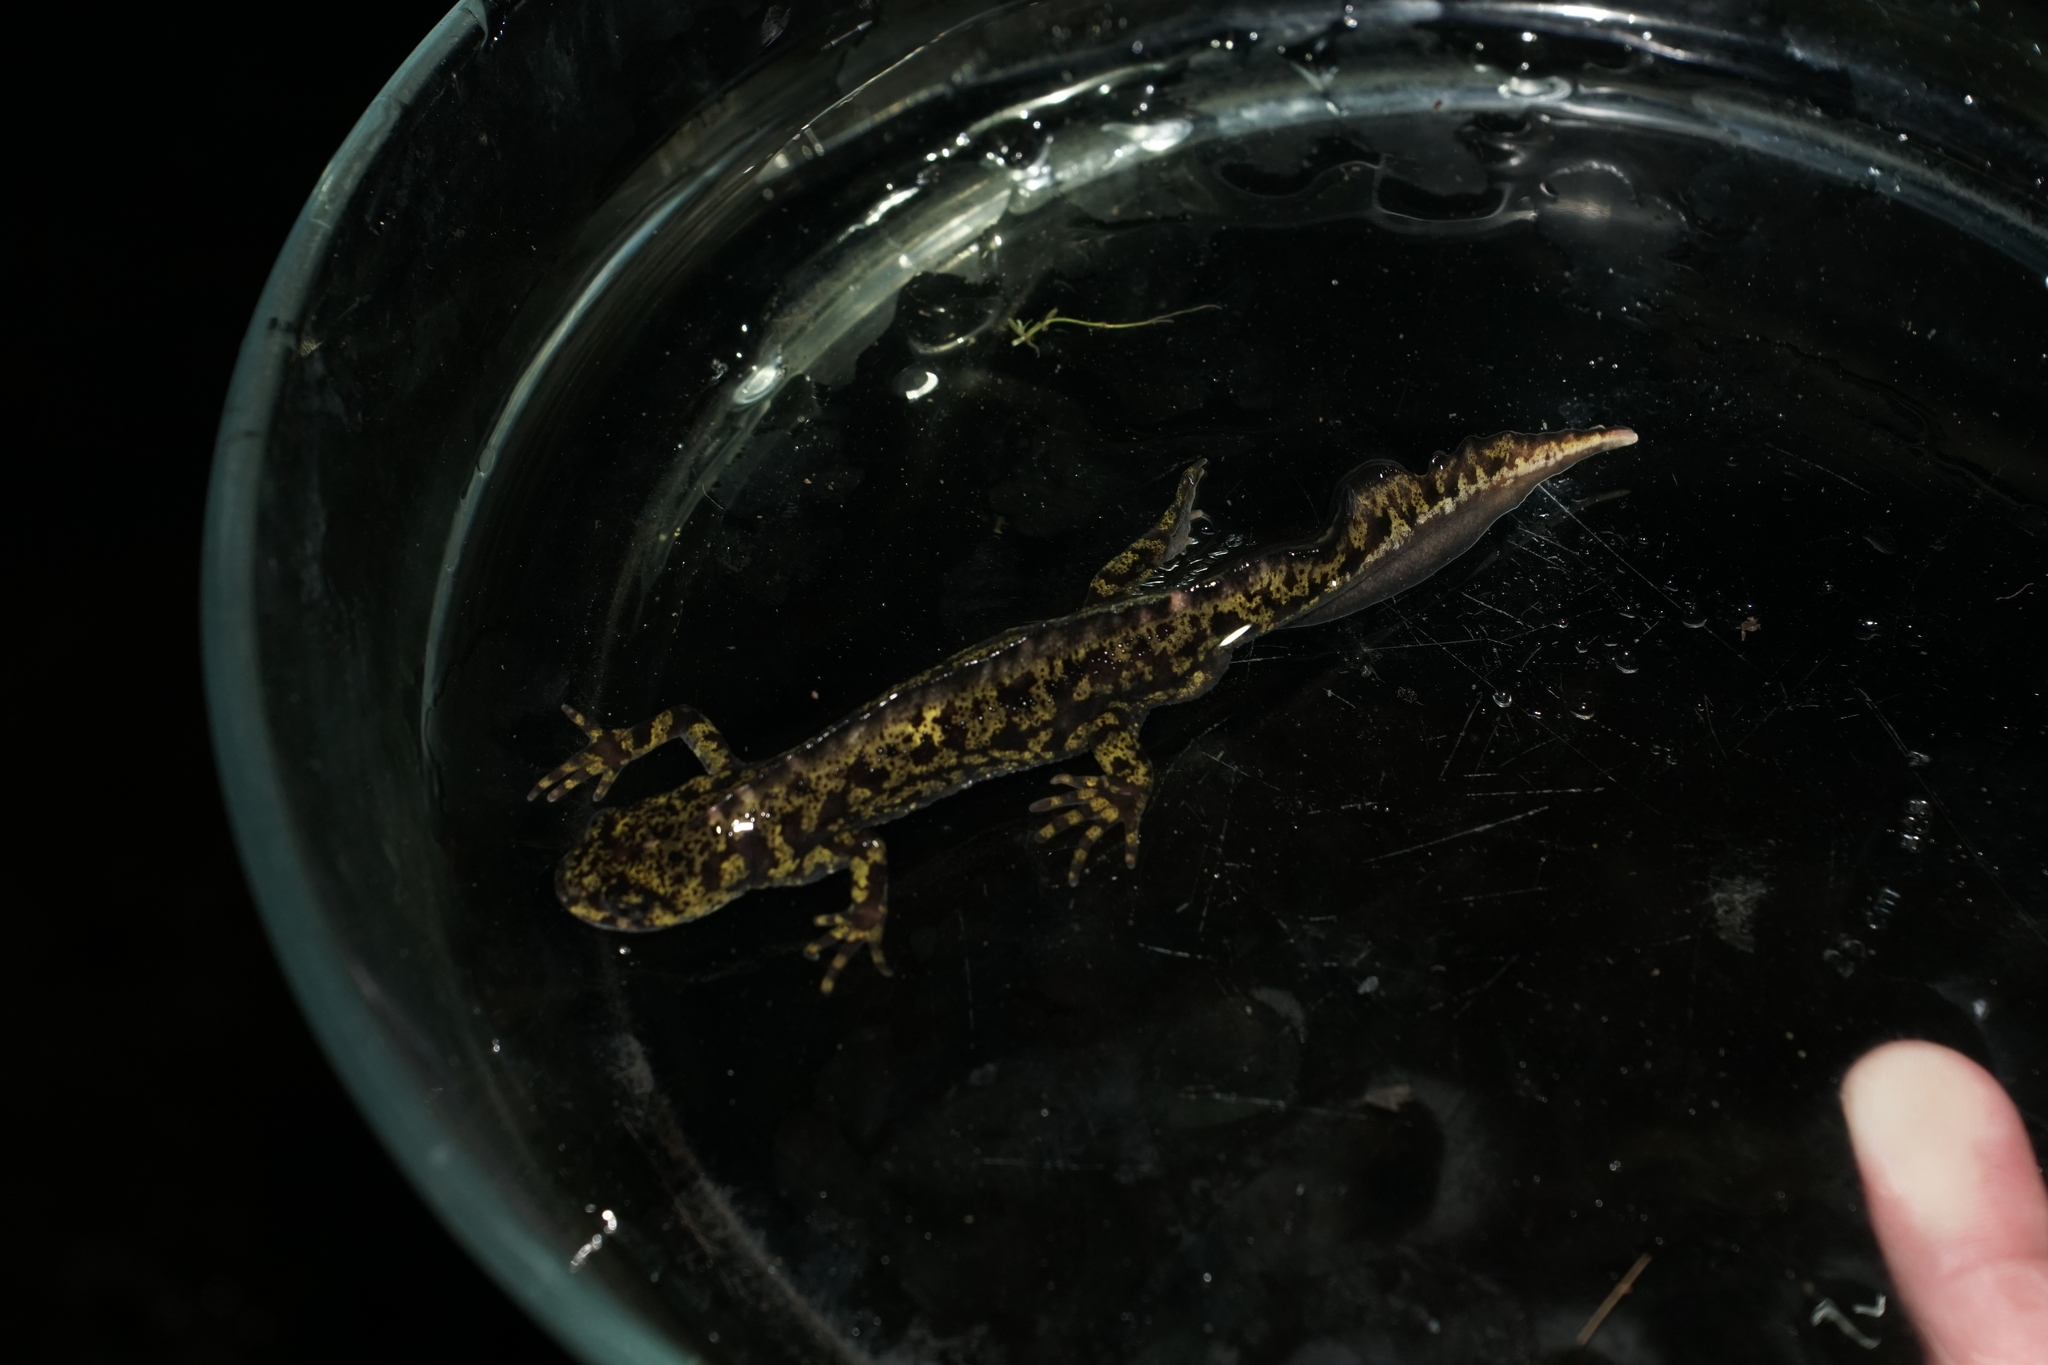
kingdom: Animalia
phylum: Chordata
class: Amphibia
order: Caudata
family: Salamandridae
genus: Triturus
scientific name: Triturus marmoratus
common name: Marbled newt
